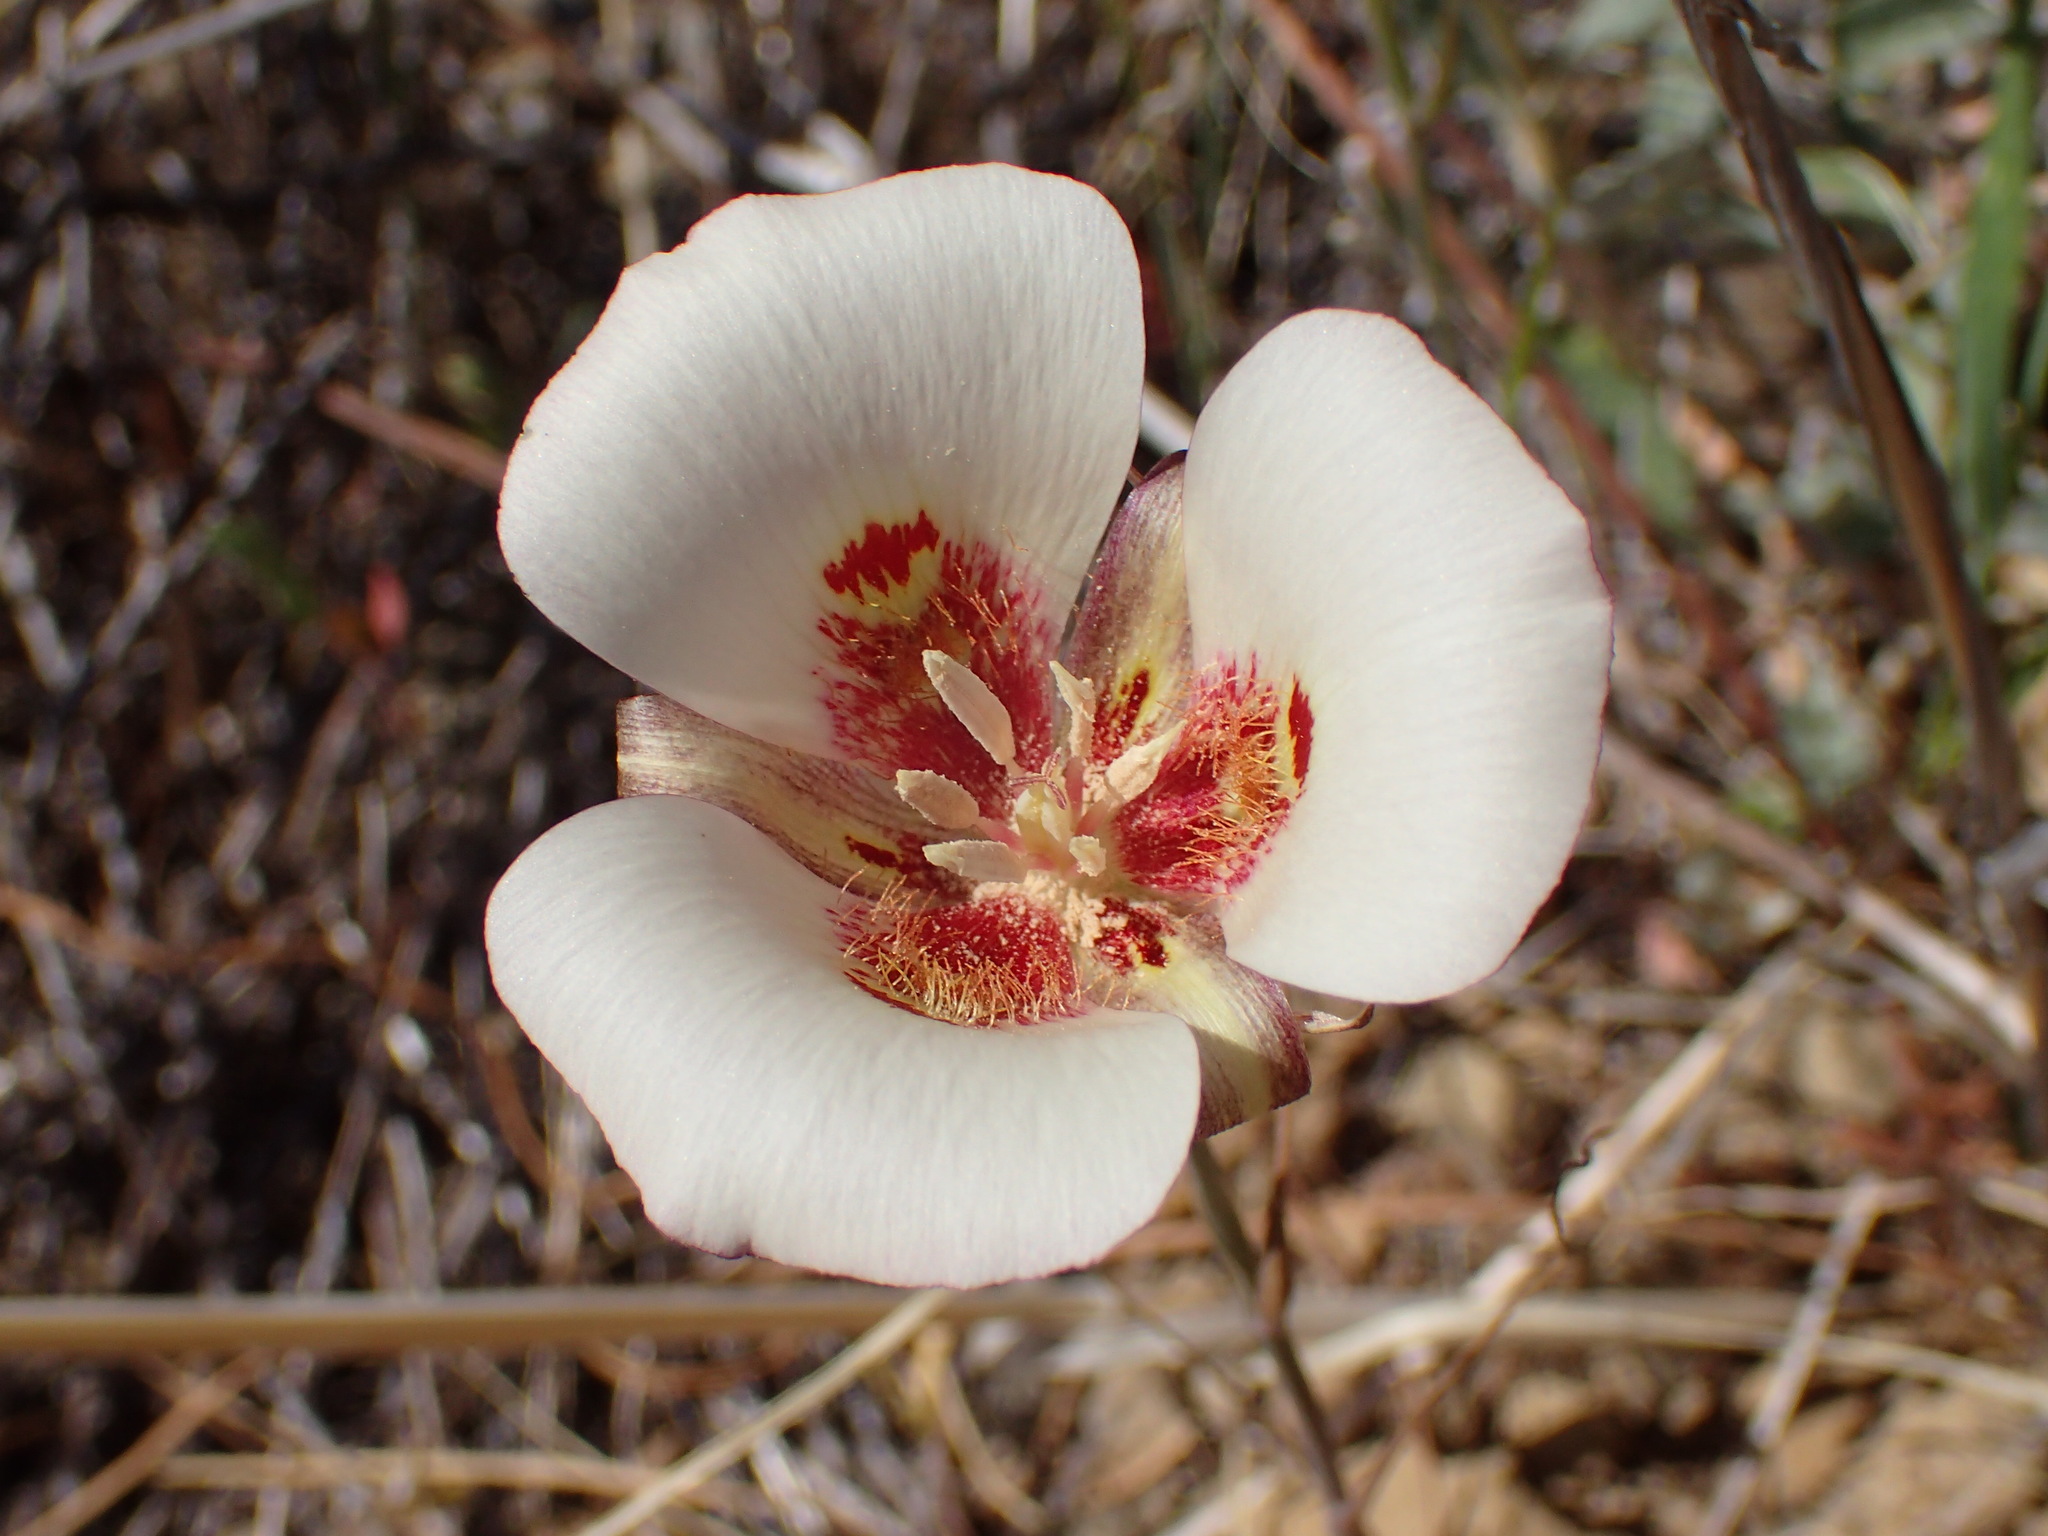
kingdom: Plantae
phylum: Tracheophyta
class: Liliopsida
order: Liliales
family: Liliaceae
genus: Calochortus
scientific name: Calochortus venustus
